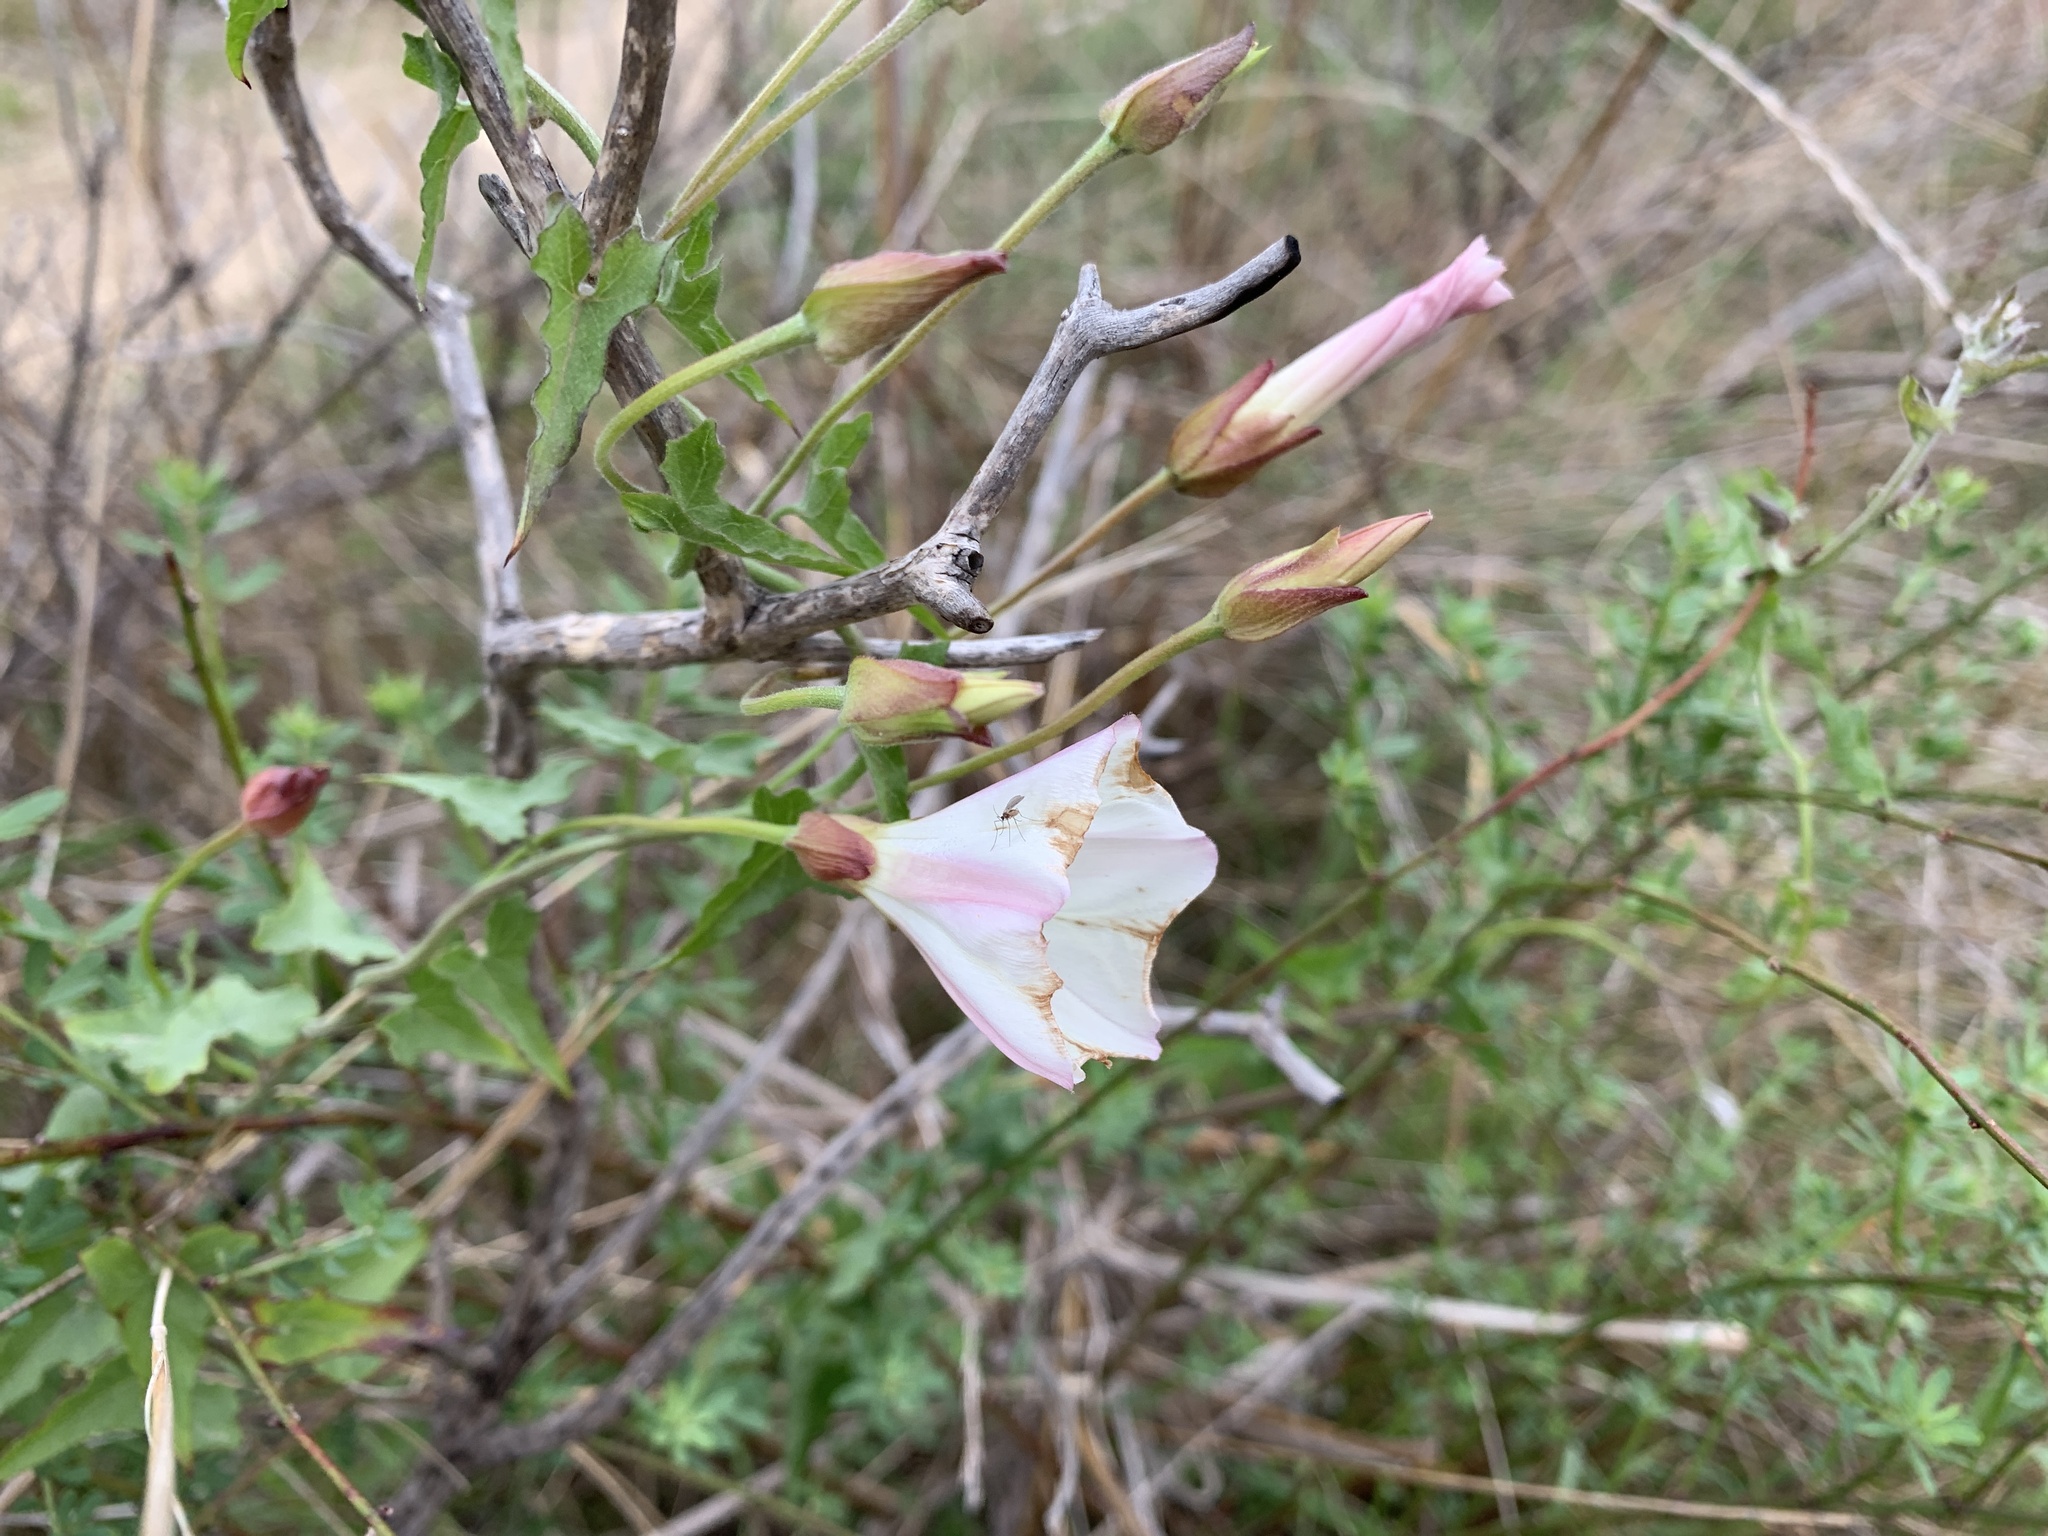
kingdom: Plantae
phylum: Tracheophyta
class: Magnoliopsida
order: Solanales
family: Convolvulaceae
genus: Calystegia
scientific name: Calystegia macrostegia
